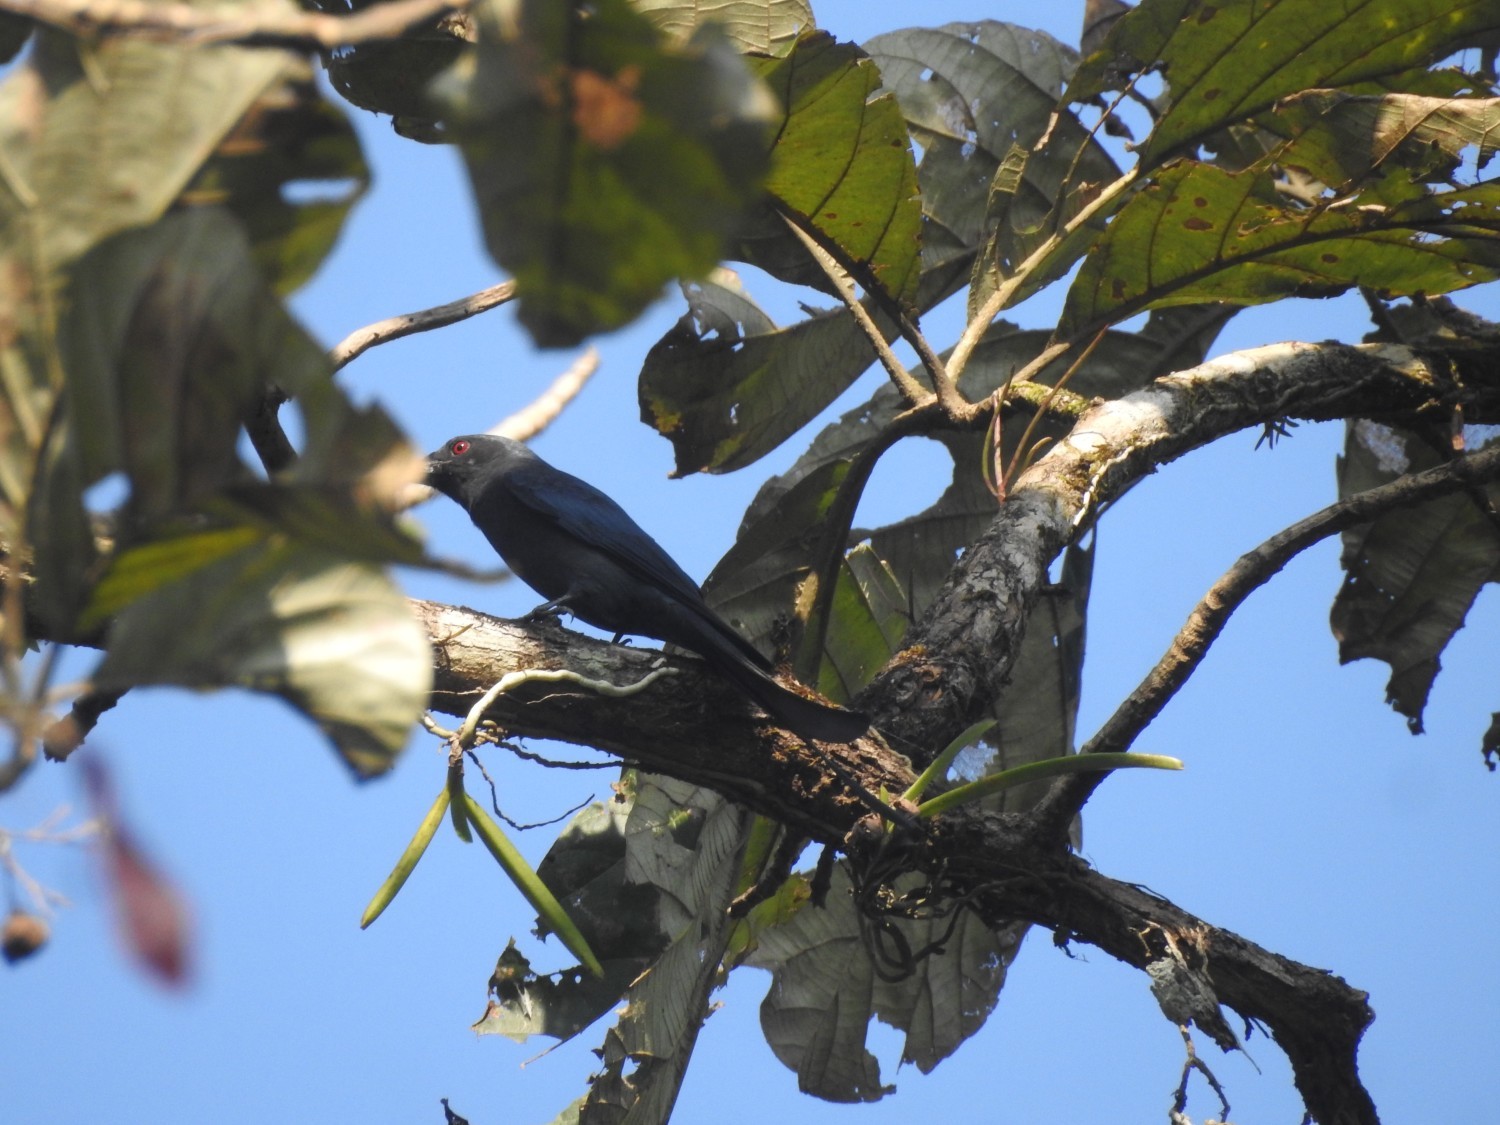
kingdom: Animalia
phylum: Chordata
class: Aves
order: Passeriformes
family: Dicruridae
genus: Dicrurus
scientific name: Dicrurus leucophaeus
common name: Ashy drongo
